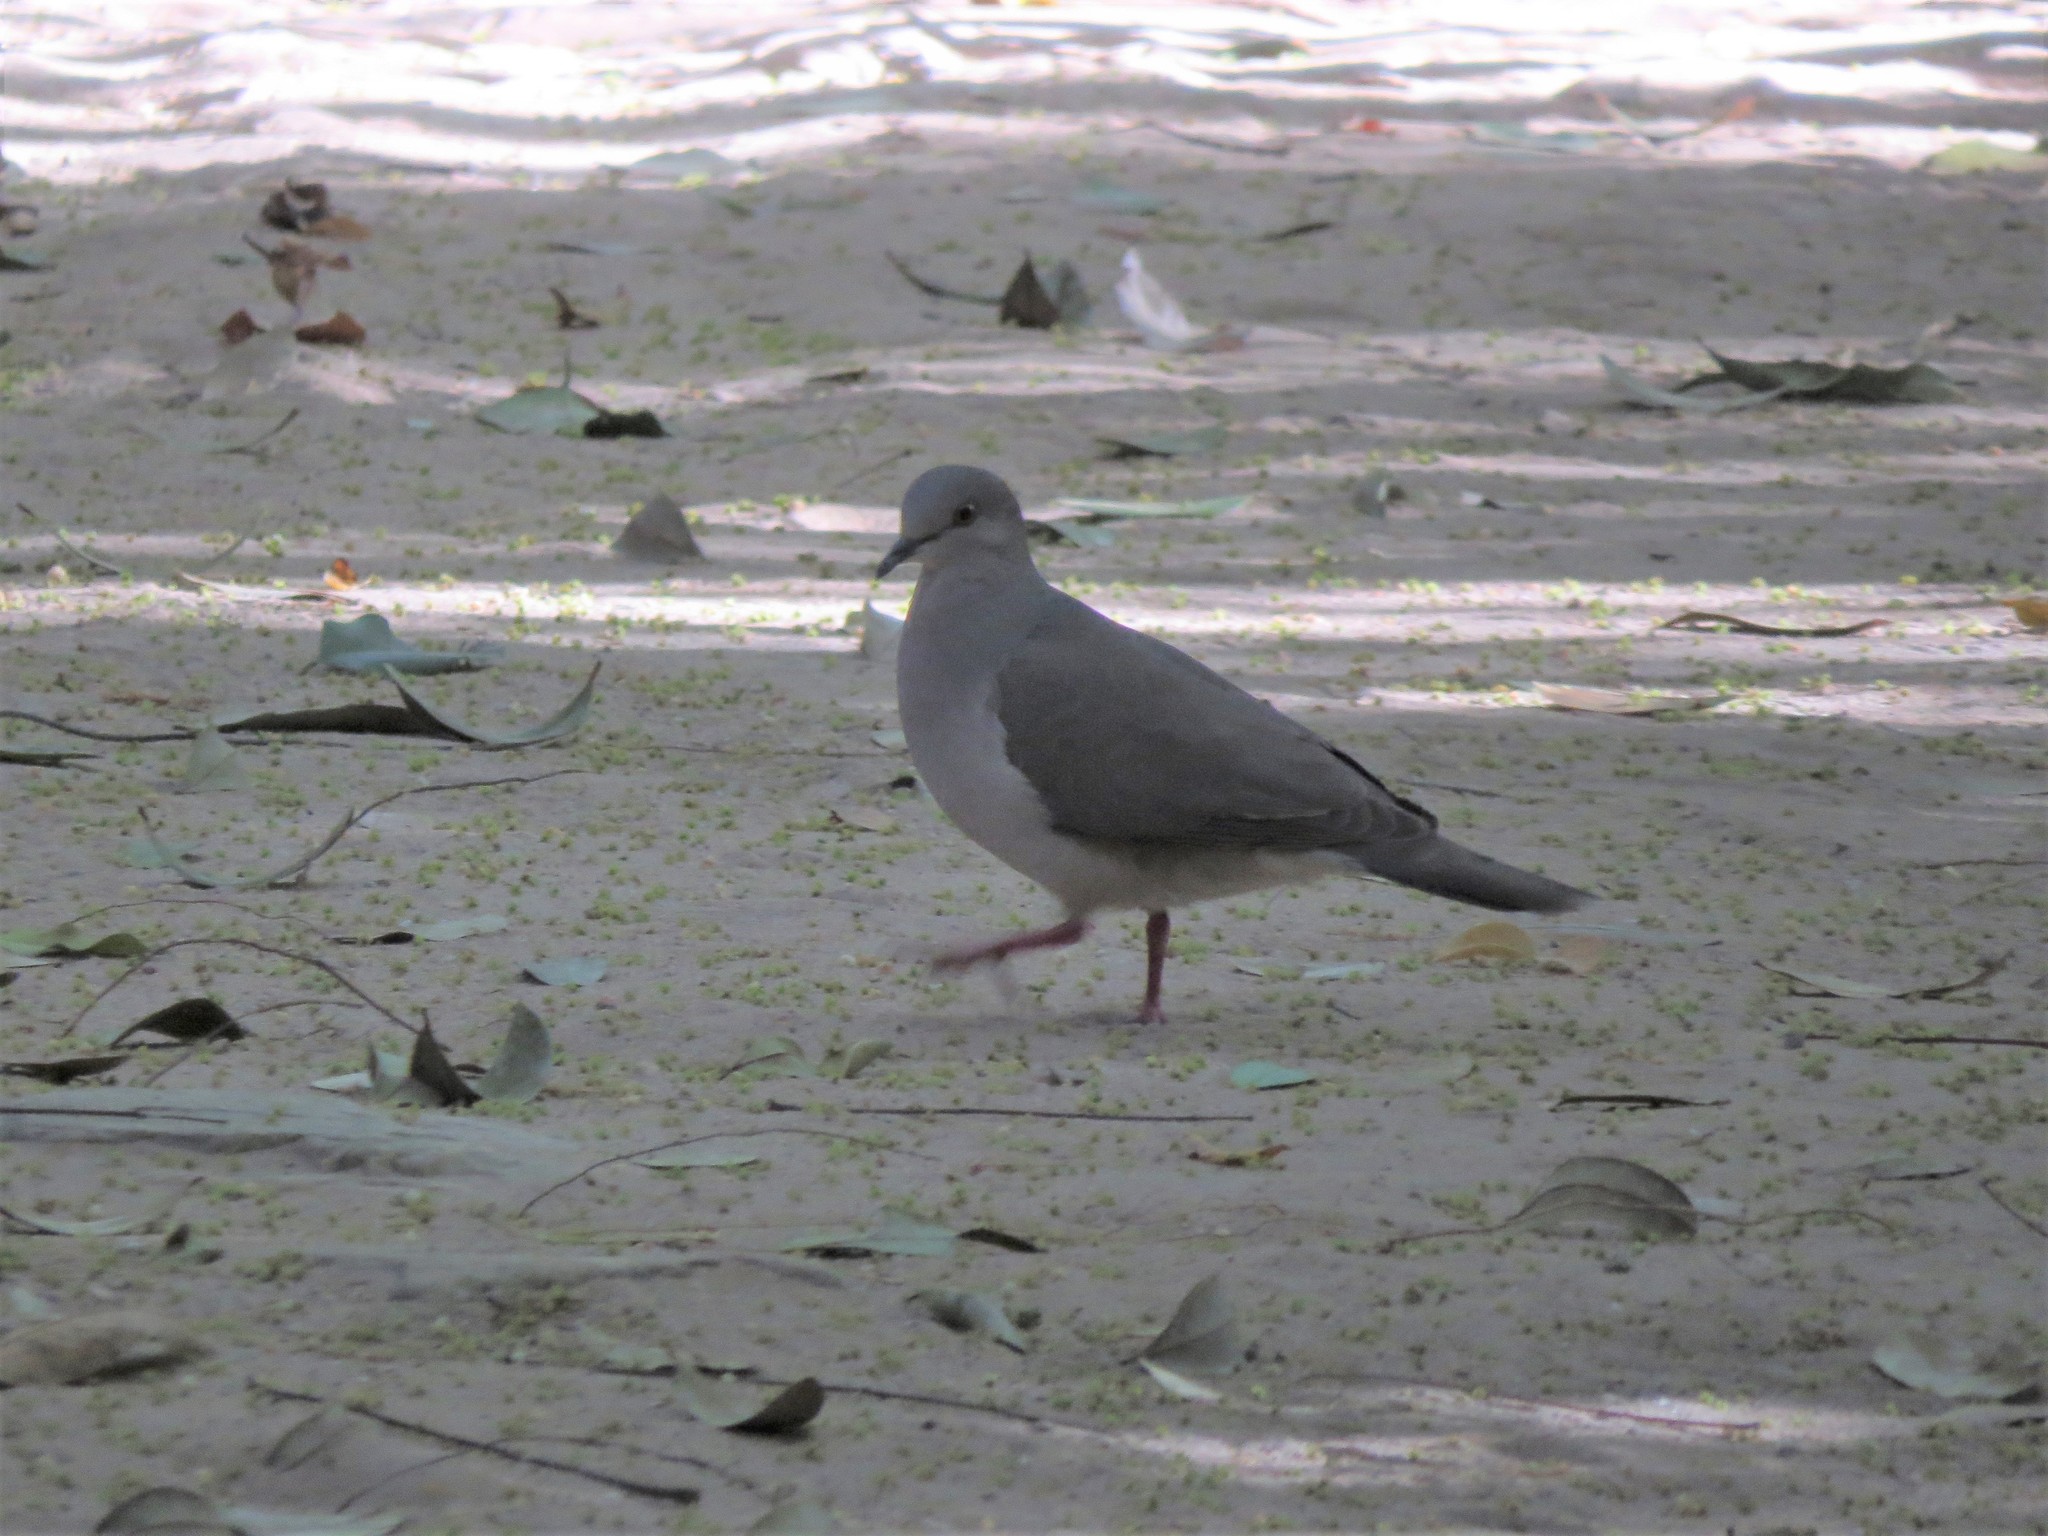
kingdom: Animalia
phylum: Chordata
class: Aves
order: Columbiformes
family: Columbidae
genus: Leptotila
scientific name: Leptotila verreauxi
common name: White-tipped dove
